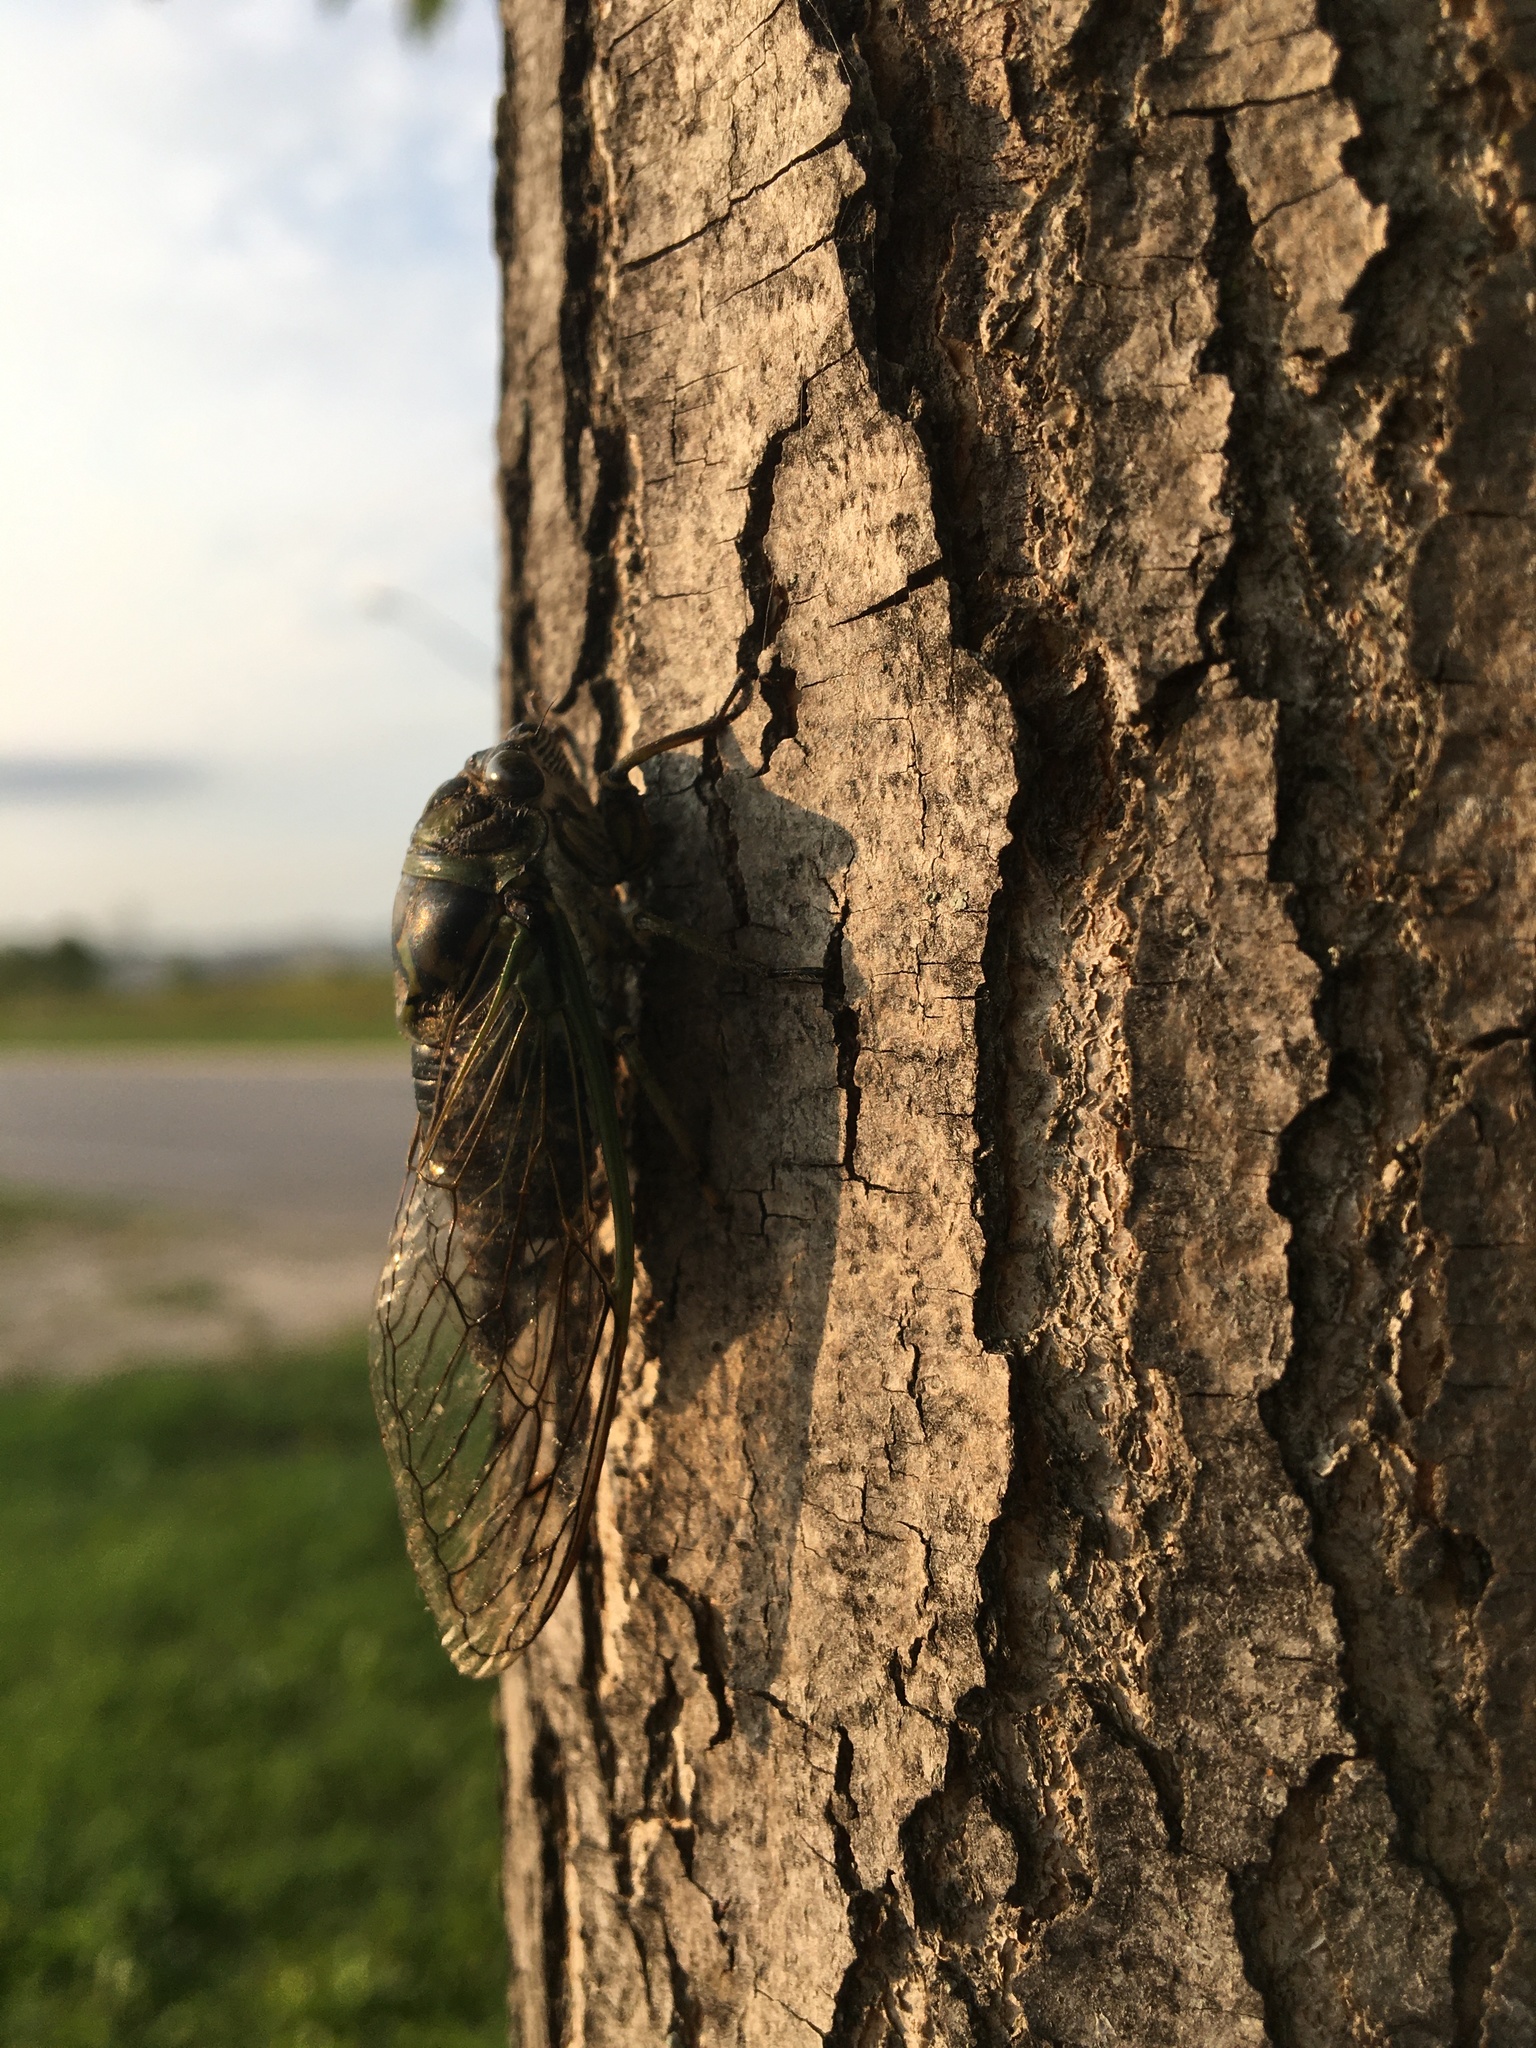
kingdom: Animalia
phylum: Arthropoda
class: Insecta
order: Hemiptera
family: Cicadidae
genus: Neotibicen
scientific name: Neotibicen canicularis
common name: God-day cicada
